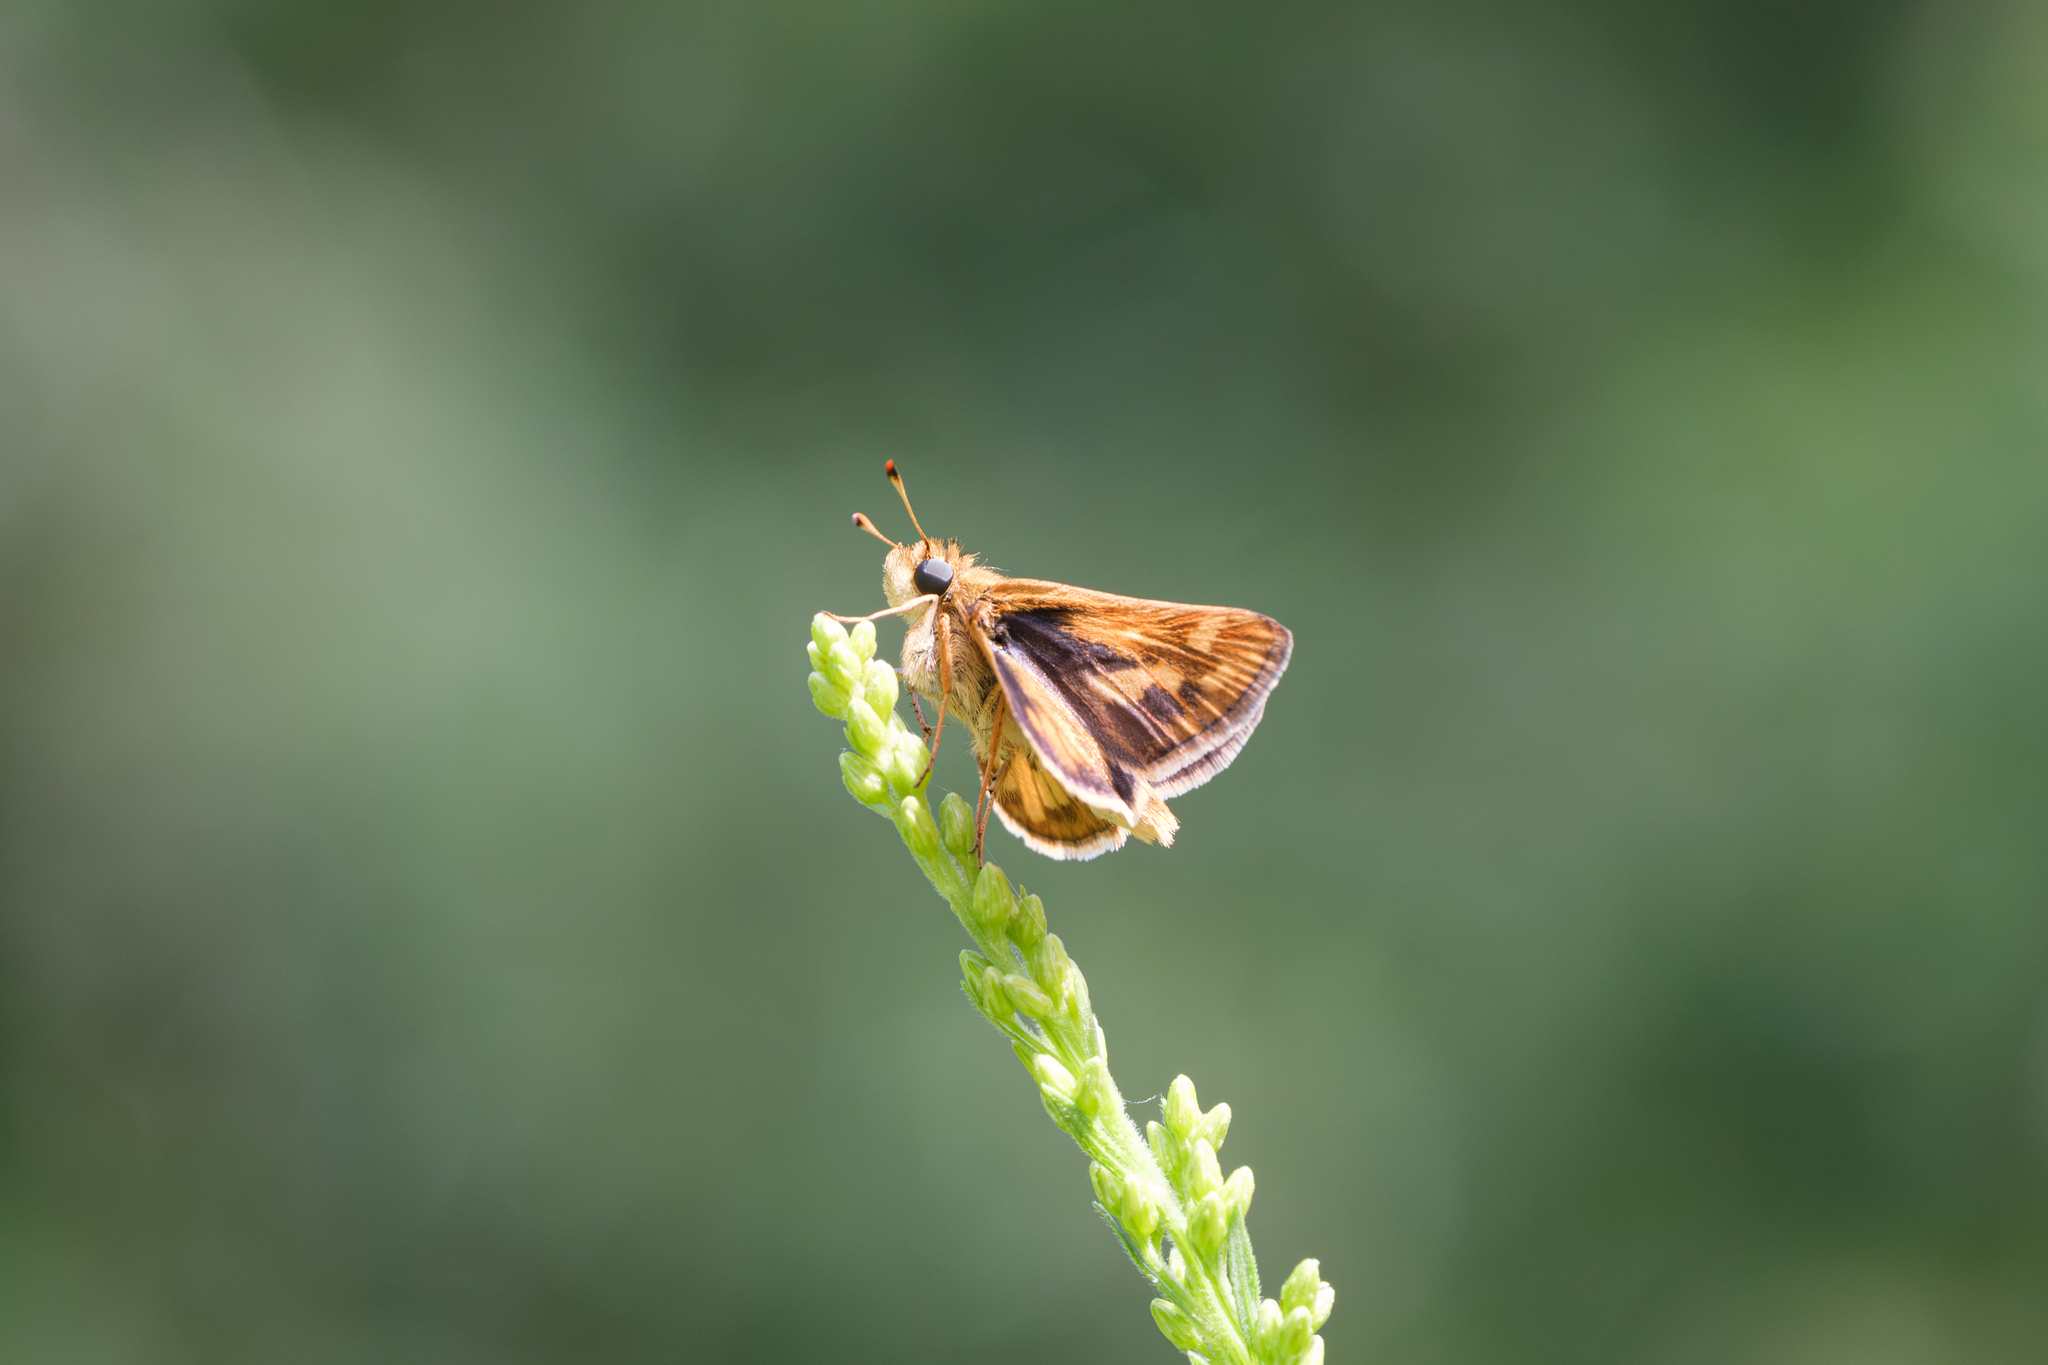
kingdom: Animalia
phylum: Arthropoda
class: Insecta
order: Lepidoptera
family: Hesperiidae
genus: Polites
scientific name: Polites coras
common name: Peck's skipper
